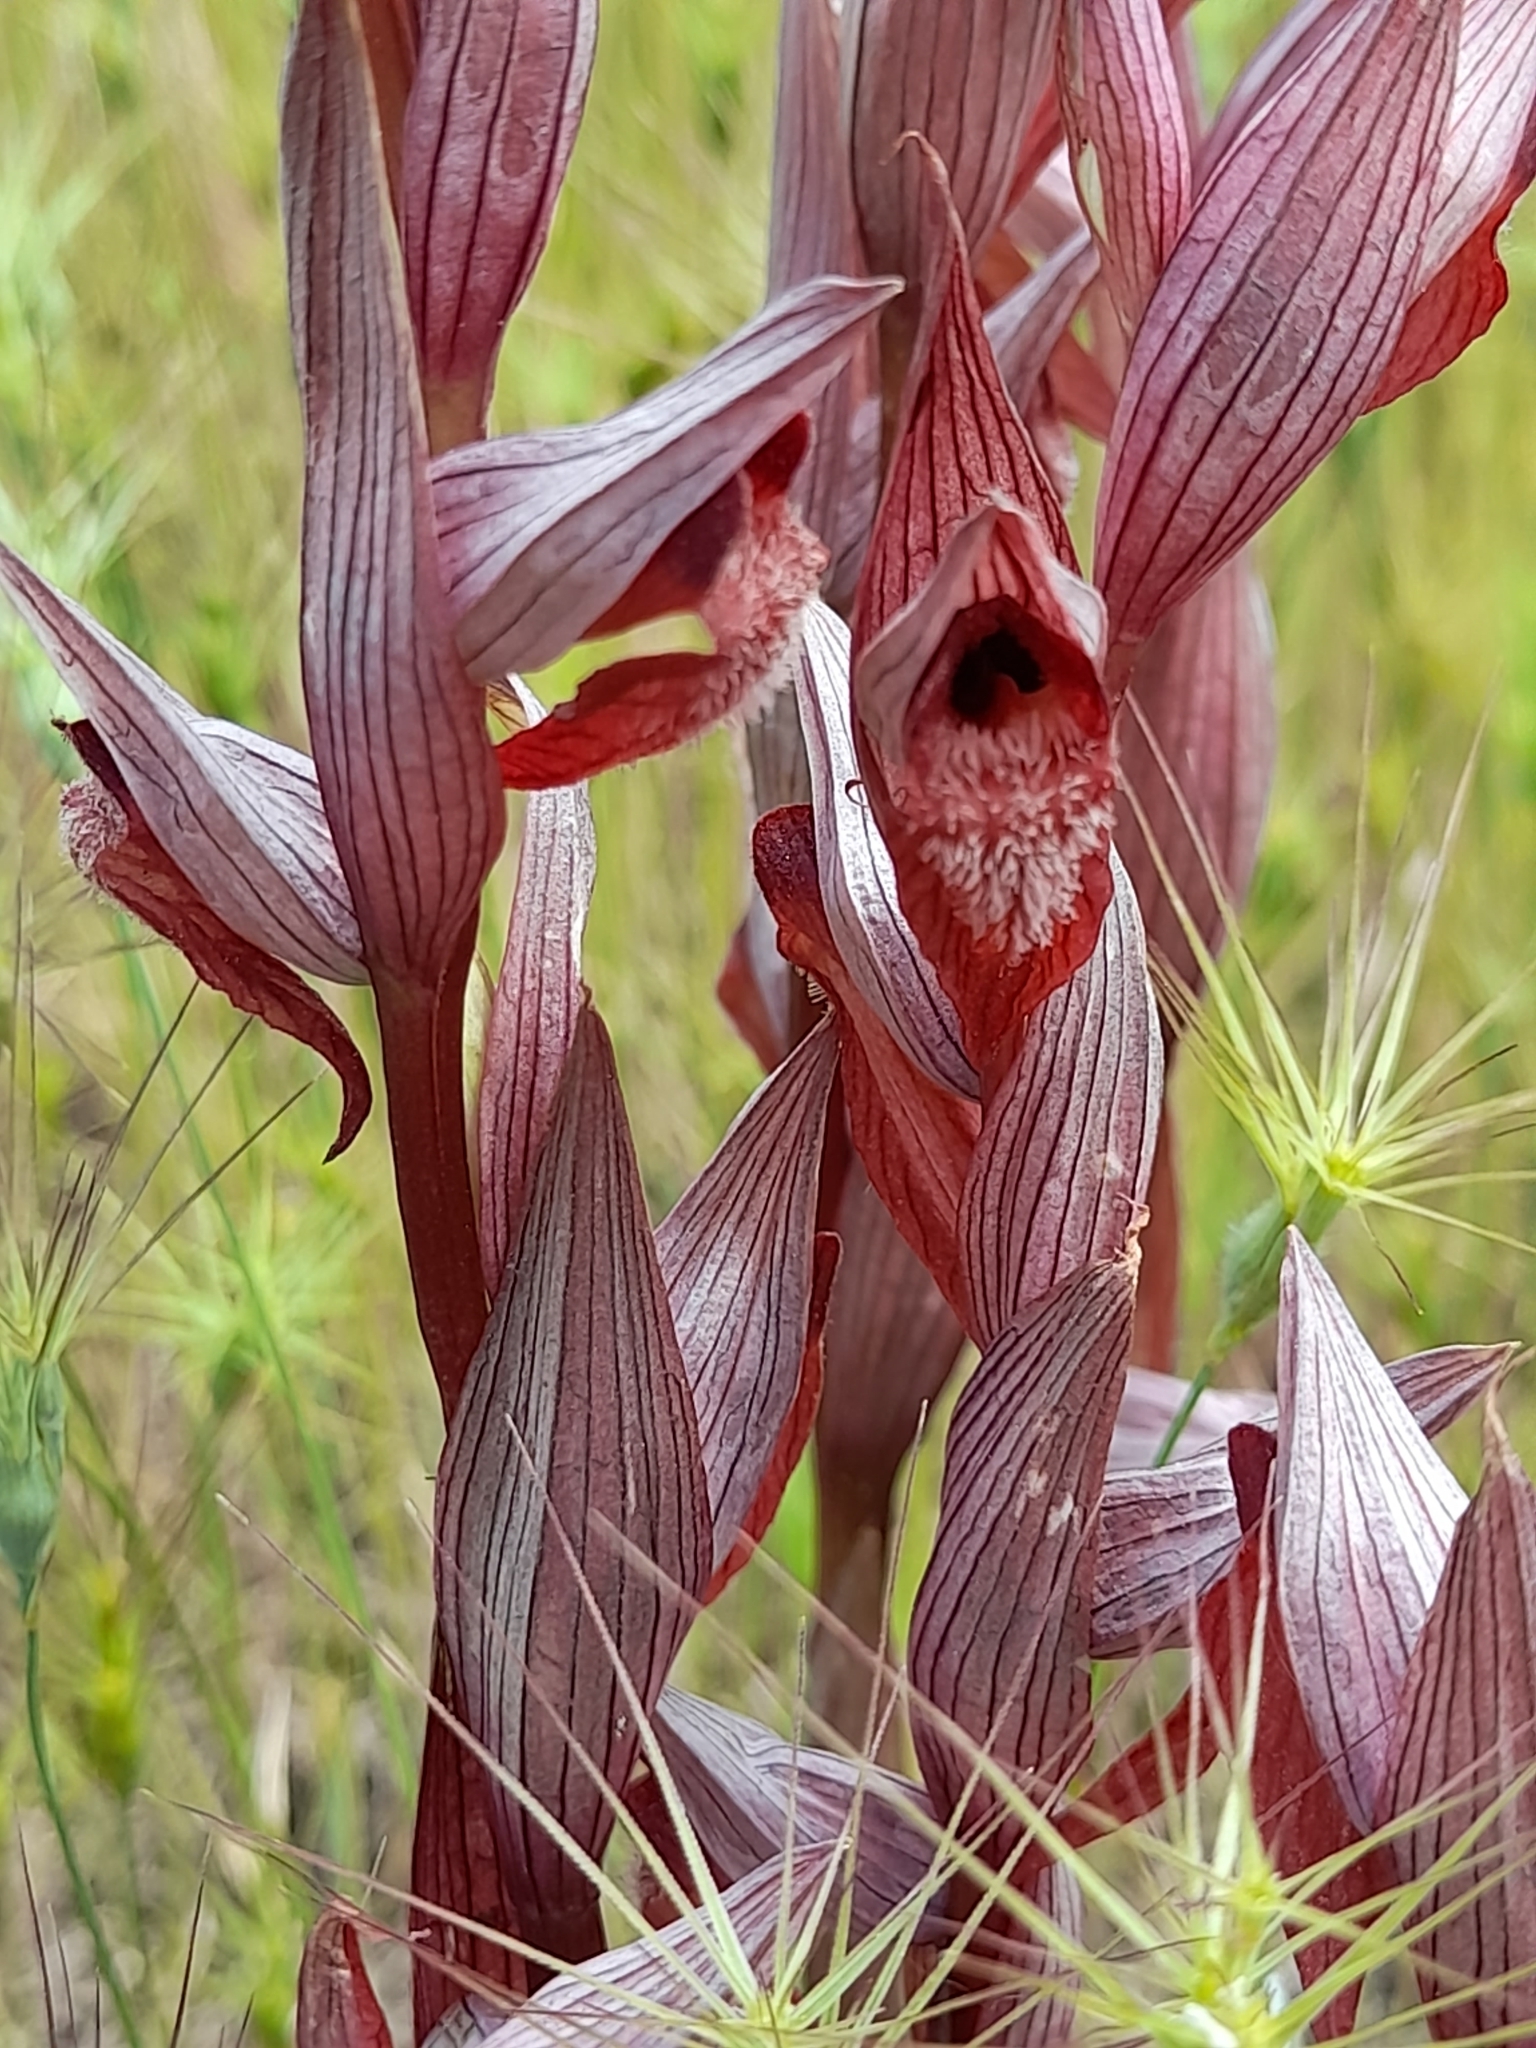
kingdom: Plantae
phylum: Tracheophyta
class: Liliopsida
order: Asparagales
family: Orchidaceae
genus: Serapias
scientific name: Serapias vomeracea
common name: Long-lipped tongue-orchid
